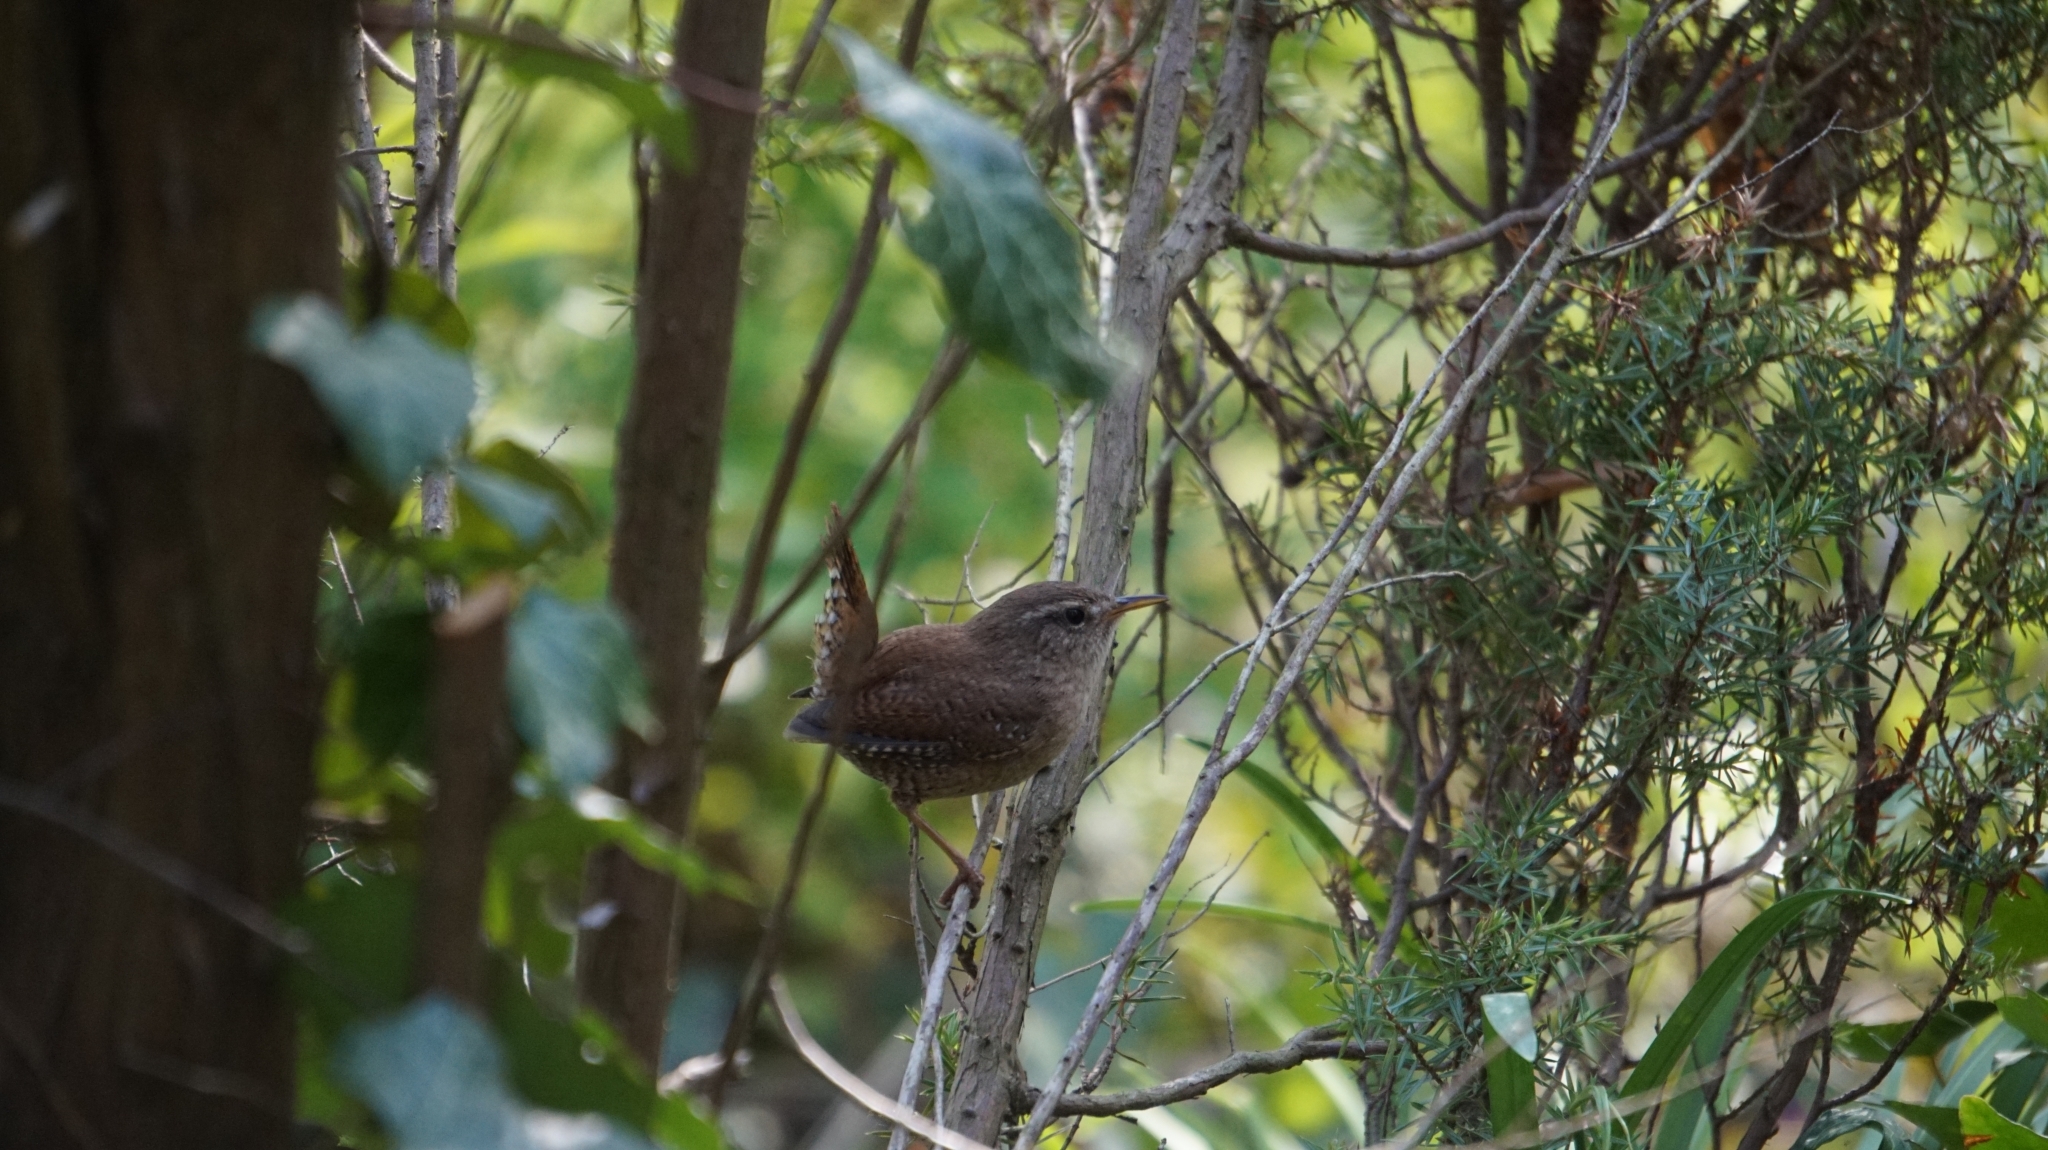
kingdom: Animalia
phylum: Chordata
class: Aves
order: Passeriformes
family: Troglodytidae
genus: Troglodytes
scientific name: Troglodytes troglodytes
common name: Eurasian wren
